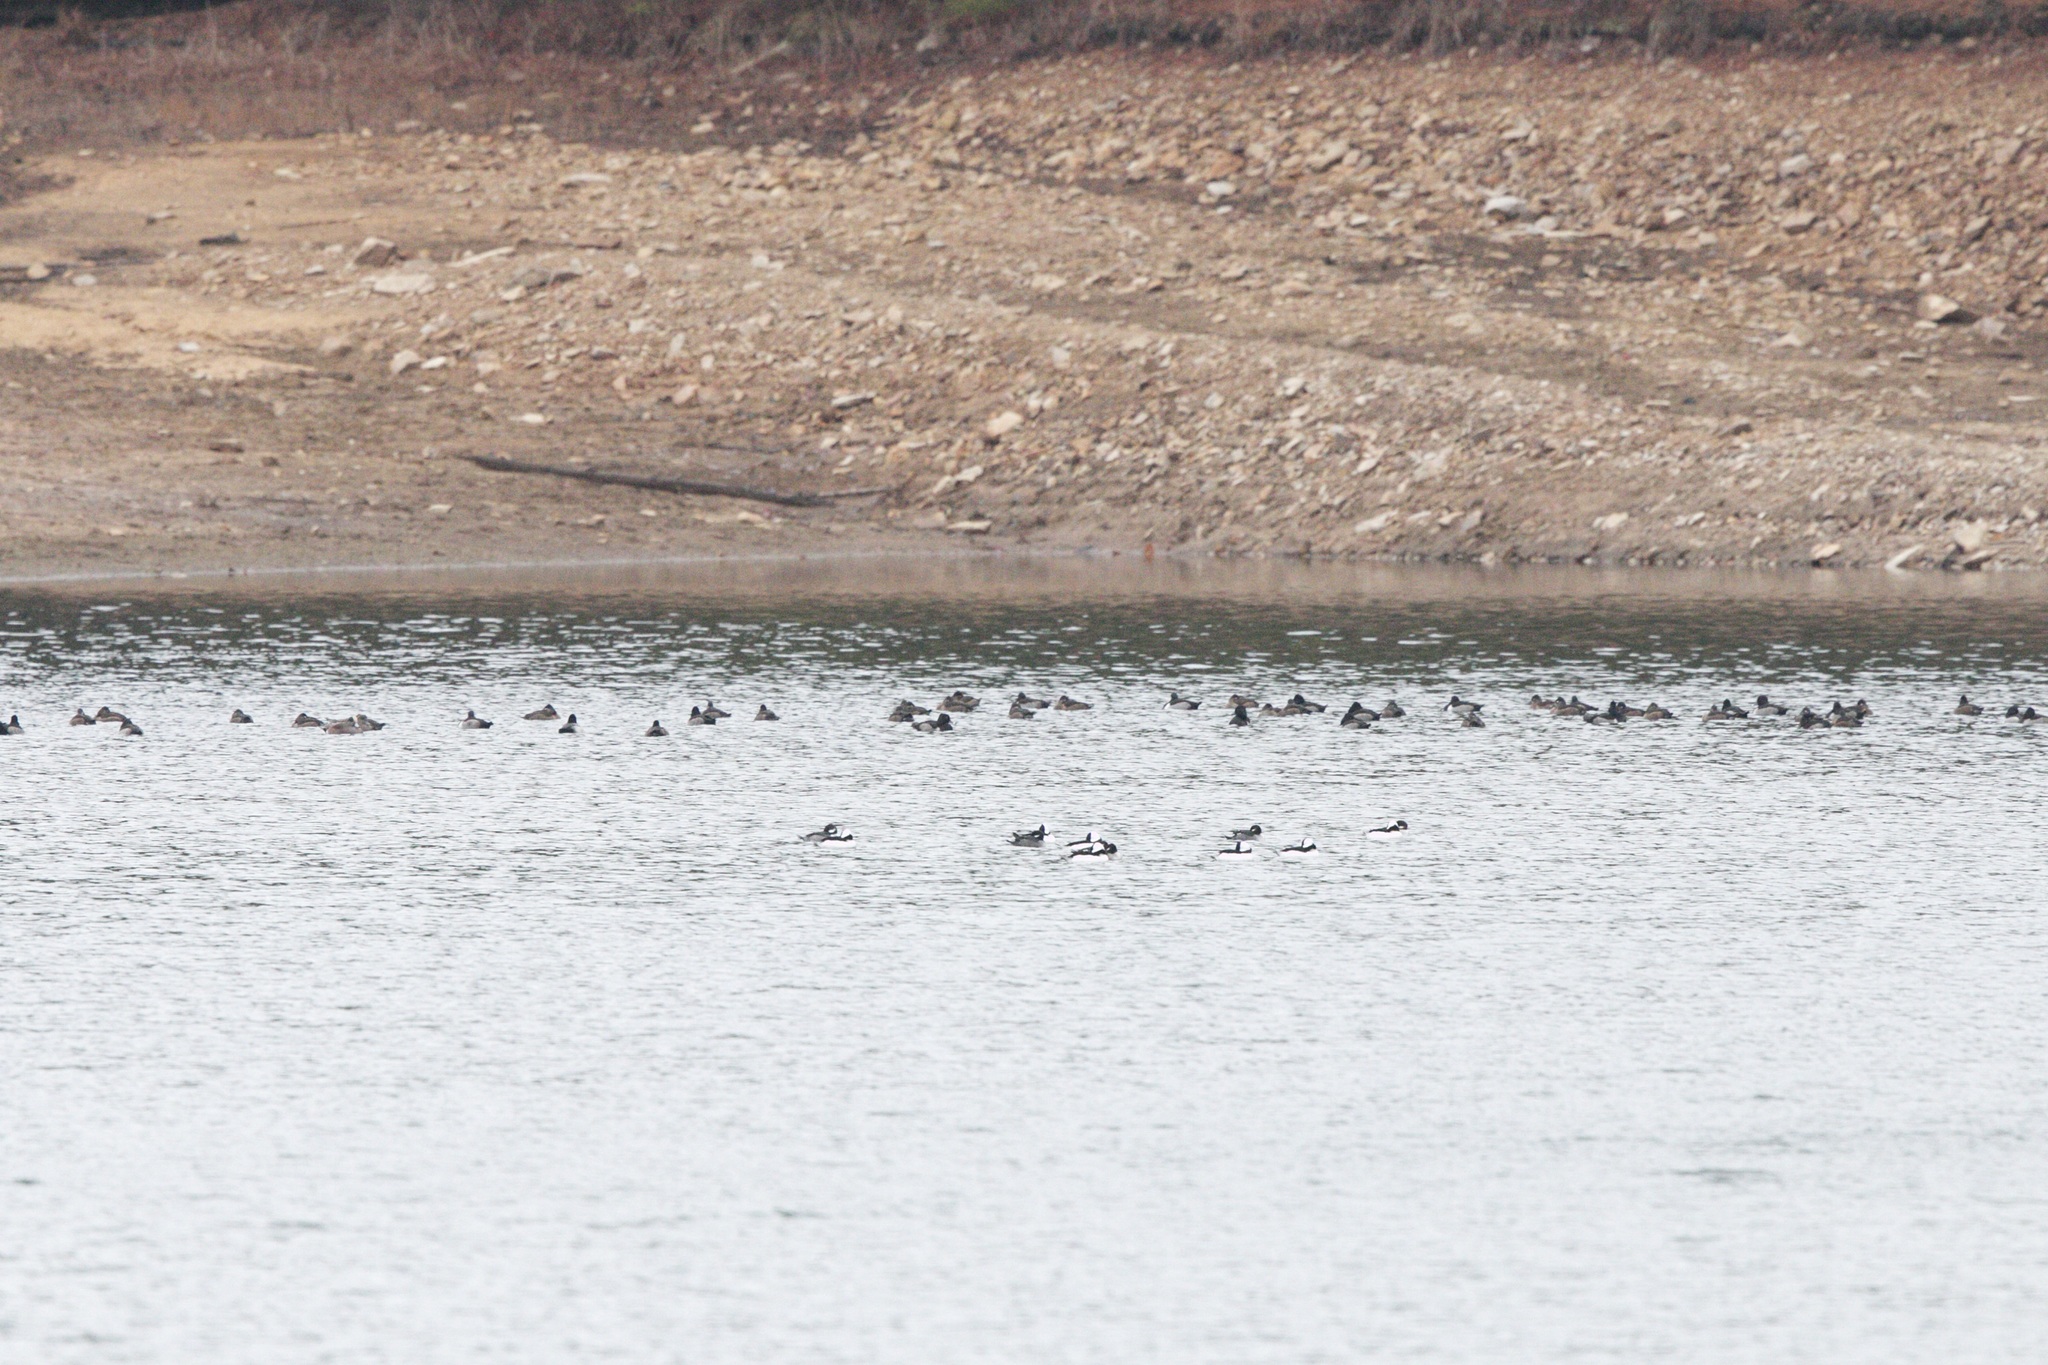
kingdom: Animalia
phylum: Chordata
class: Aves
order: Anseriformes
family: Anatidae
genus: Aythya
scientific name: Aythya collaris
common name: Ring-necked duck
